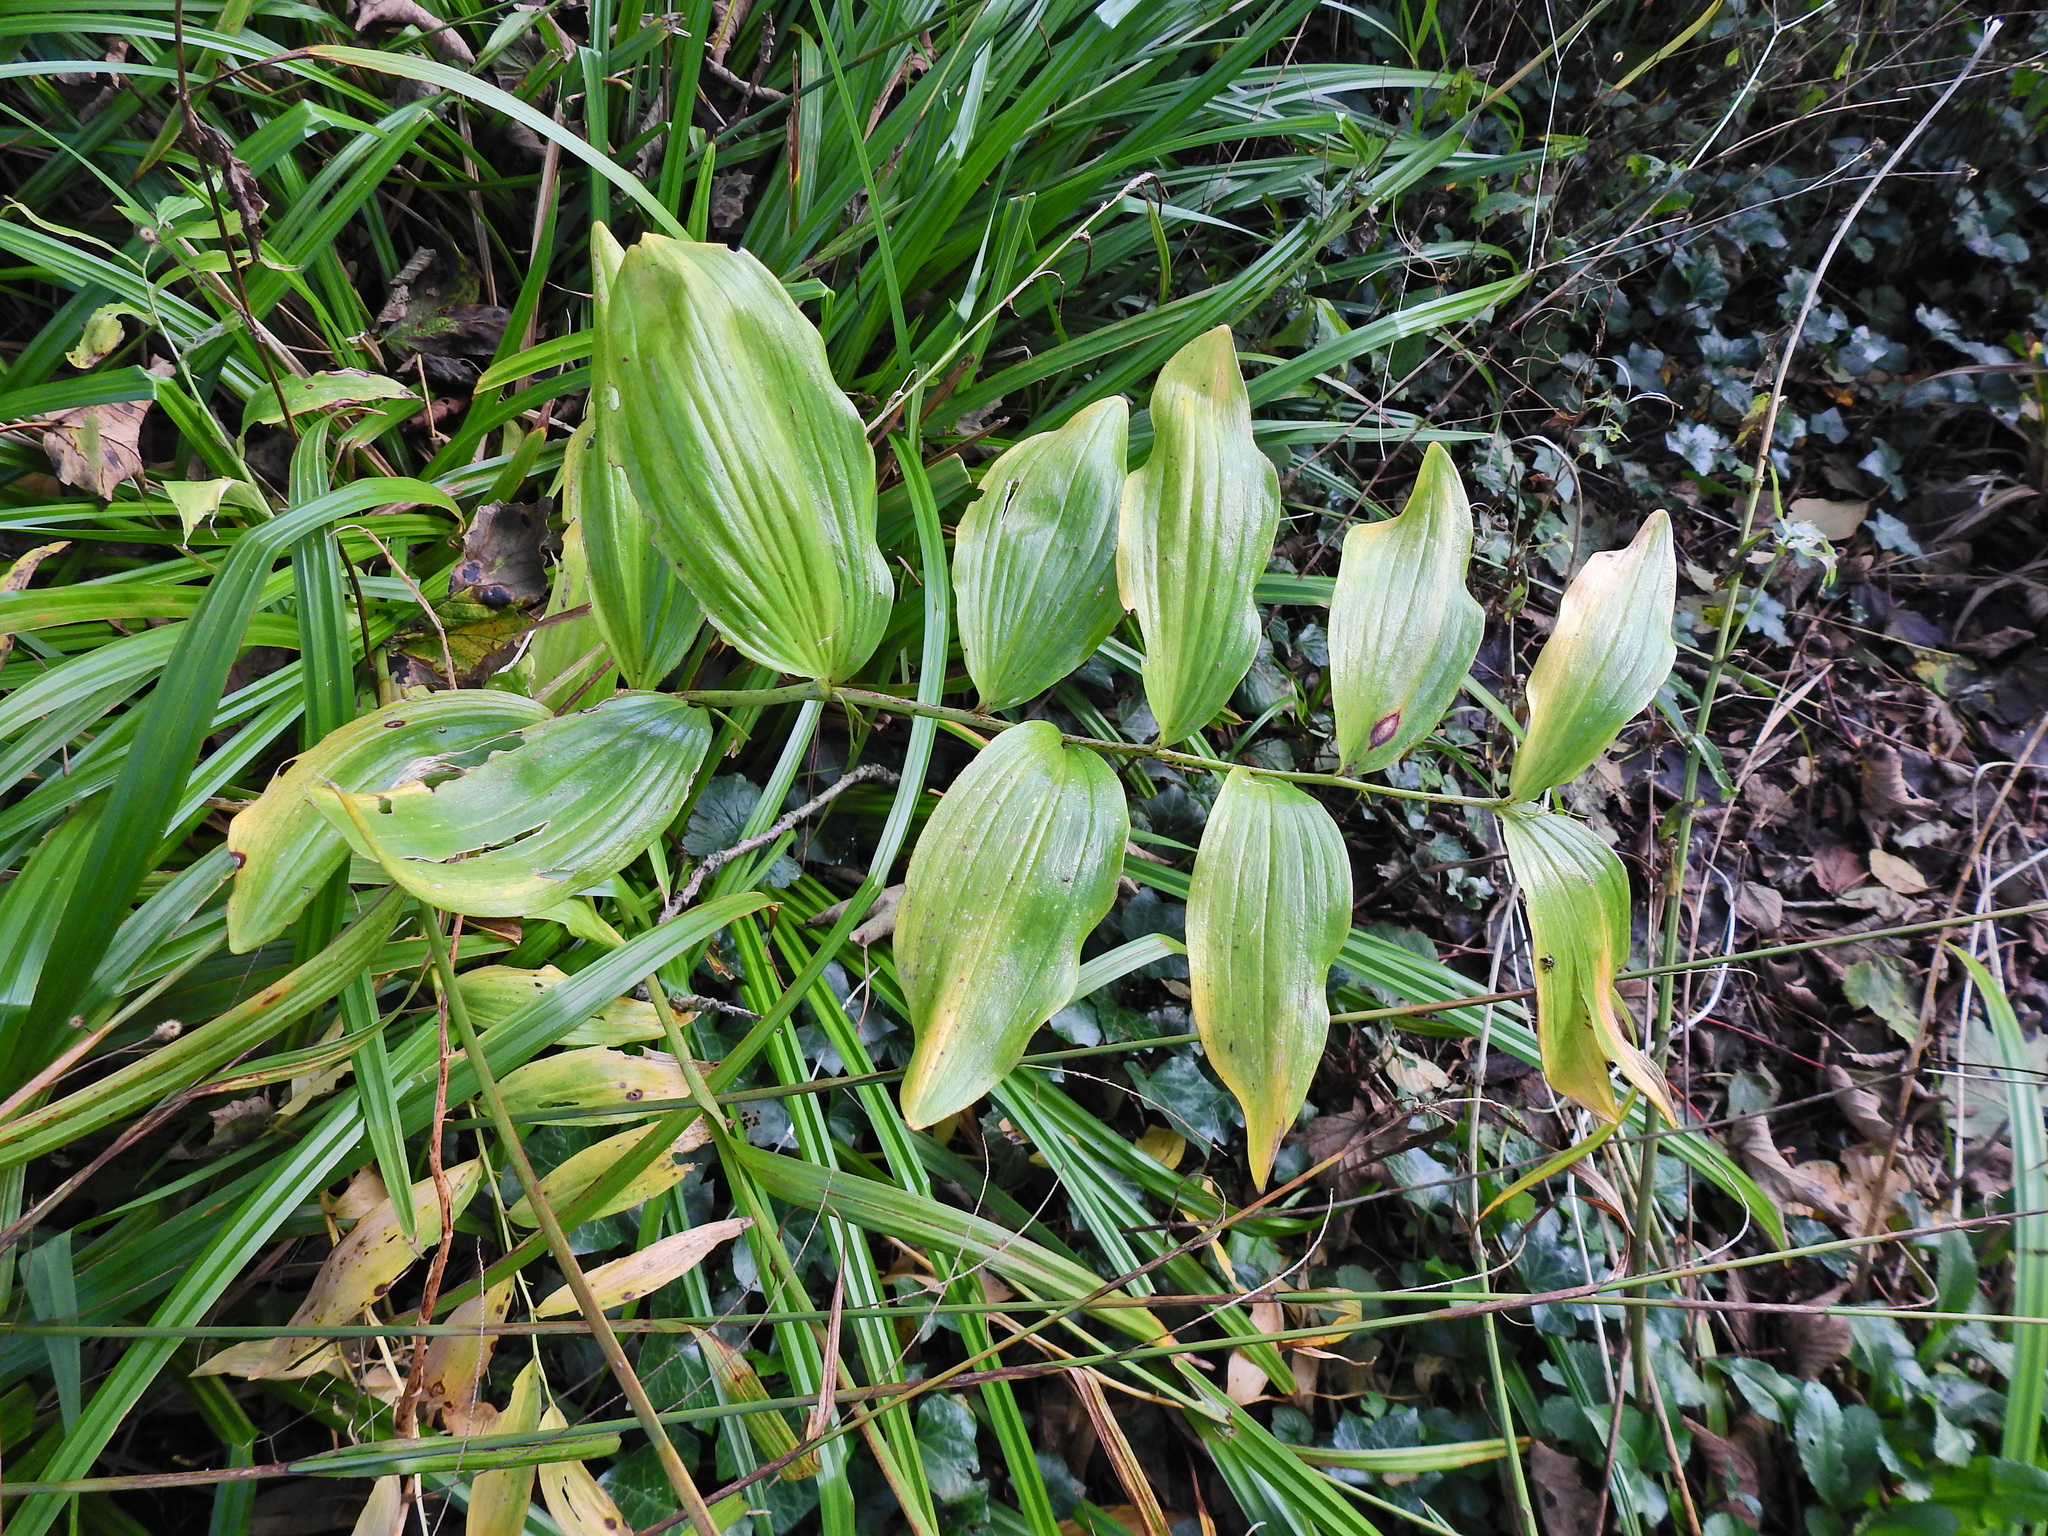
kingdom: Plantae
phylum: Tracheophyta
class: Liliopsida
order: Asparagales
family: Asparagaceae
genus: Polygonatum
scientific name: Polygonatum multiflorum
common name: Solomon's-seal
